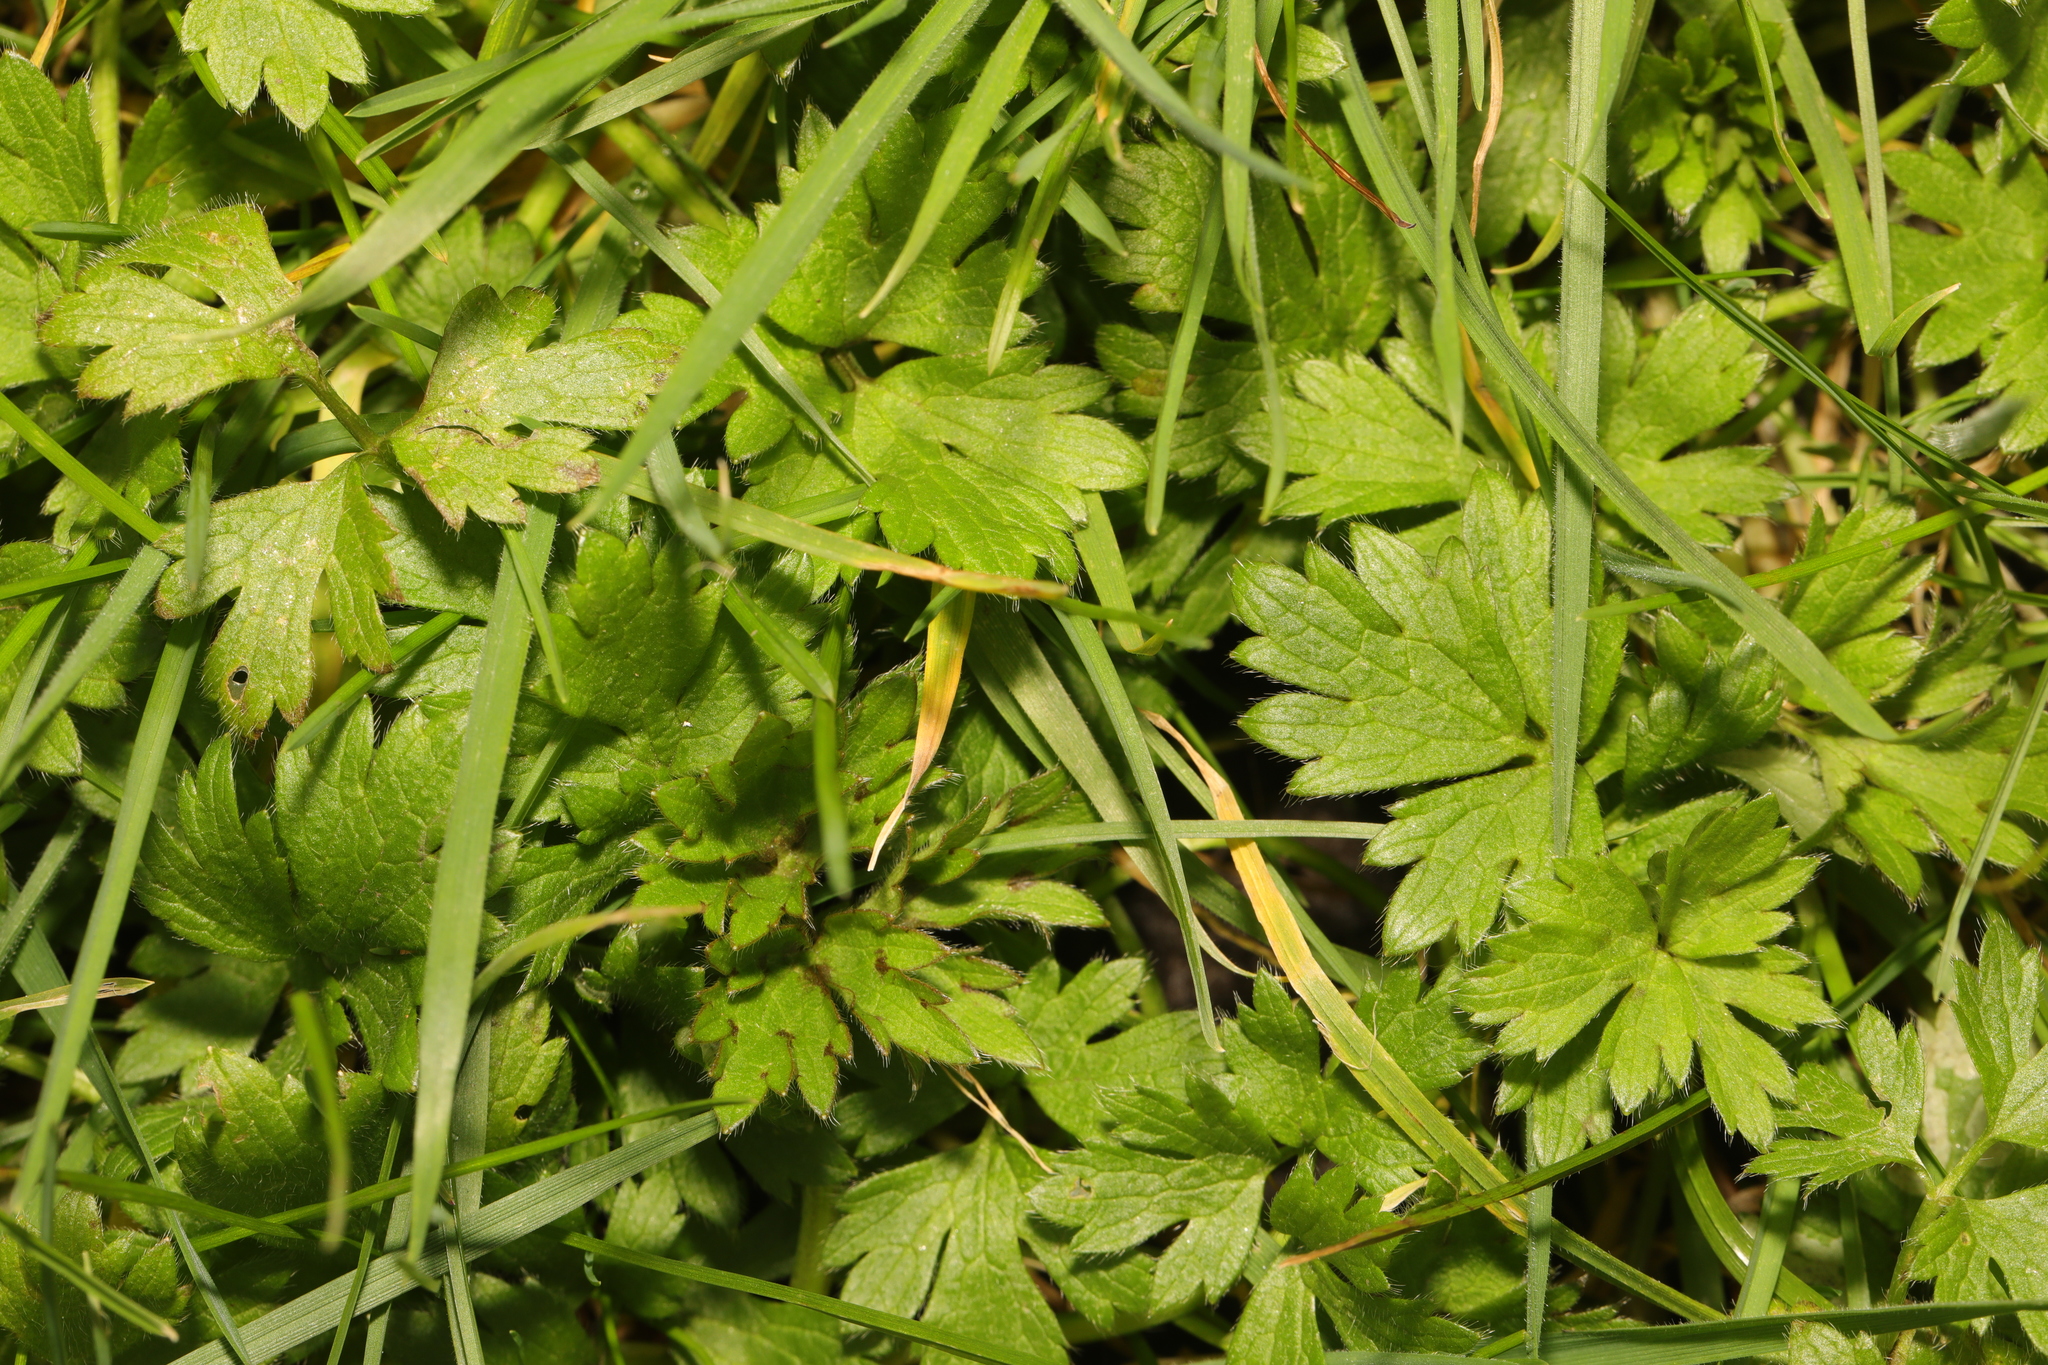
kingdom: Plantae
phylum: Tracheophyta
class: Magnoliopsida
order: Ranunculales
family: Ranunculaceae
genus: Ranunculus
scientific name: Ranunculus repens
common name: Creeping buttercup
